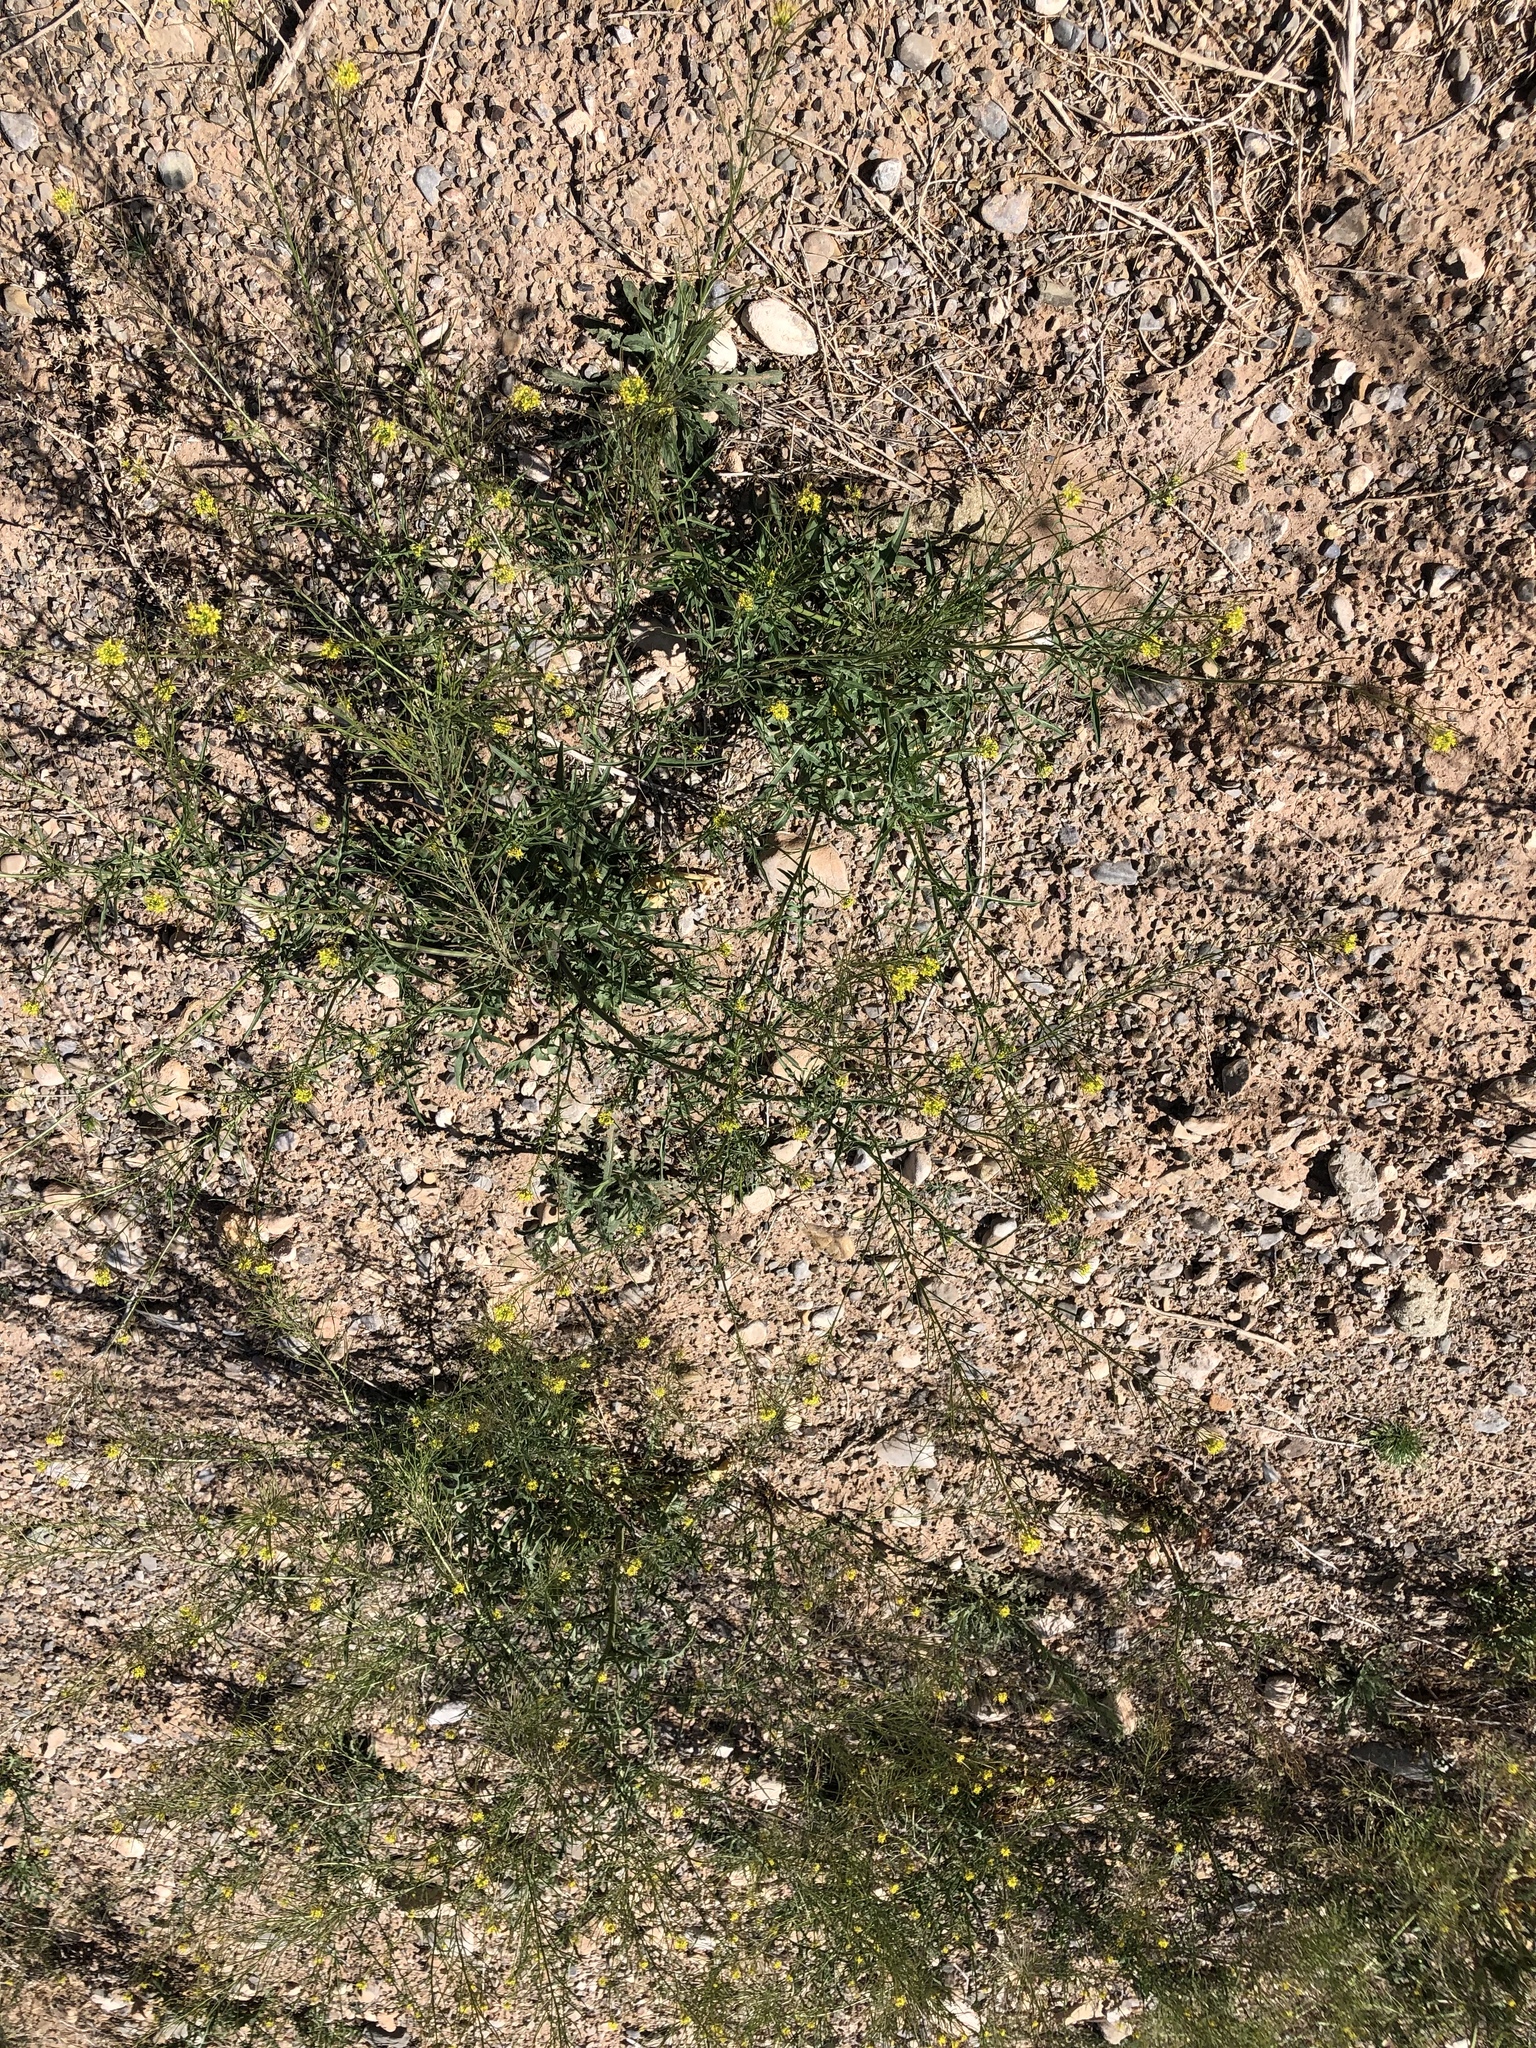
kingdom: Plantae
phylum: Tracheophyta
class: Magnoliopsida
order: Brassicales
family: Brassicaceae
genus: Sisymbrium
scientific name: Sisymbrium irio
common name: London rocket
